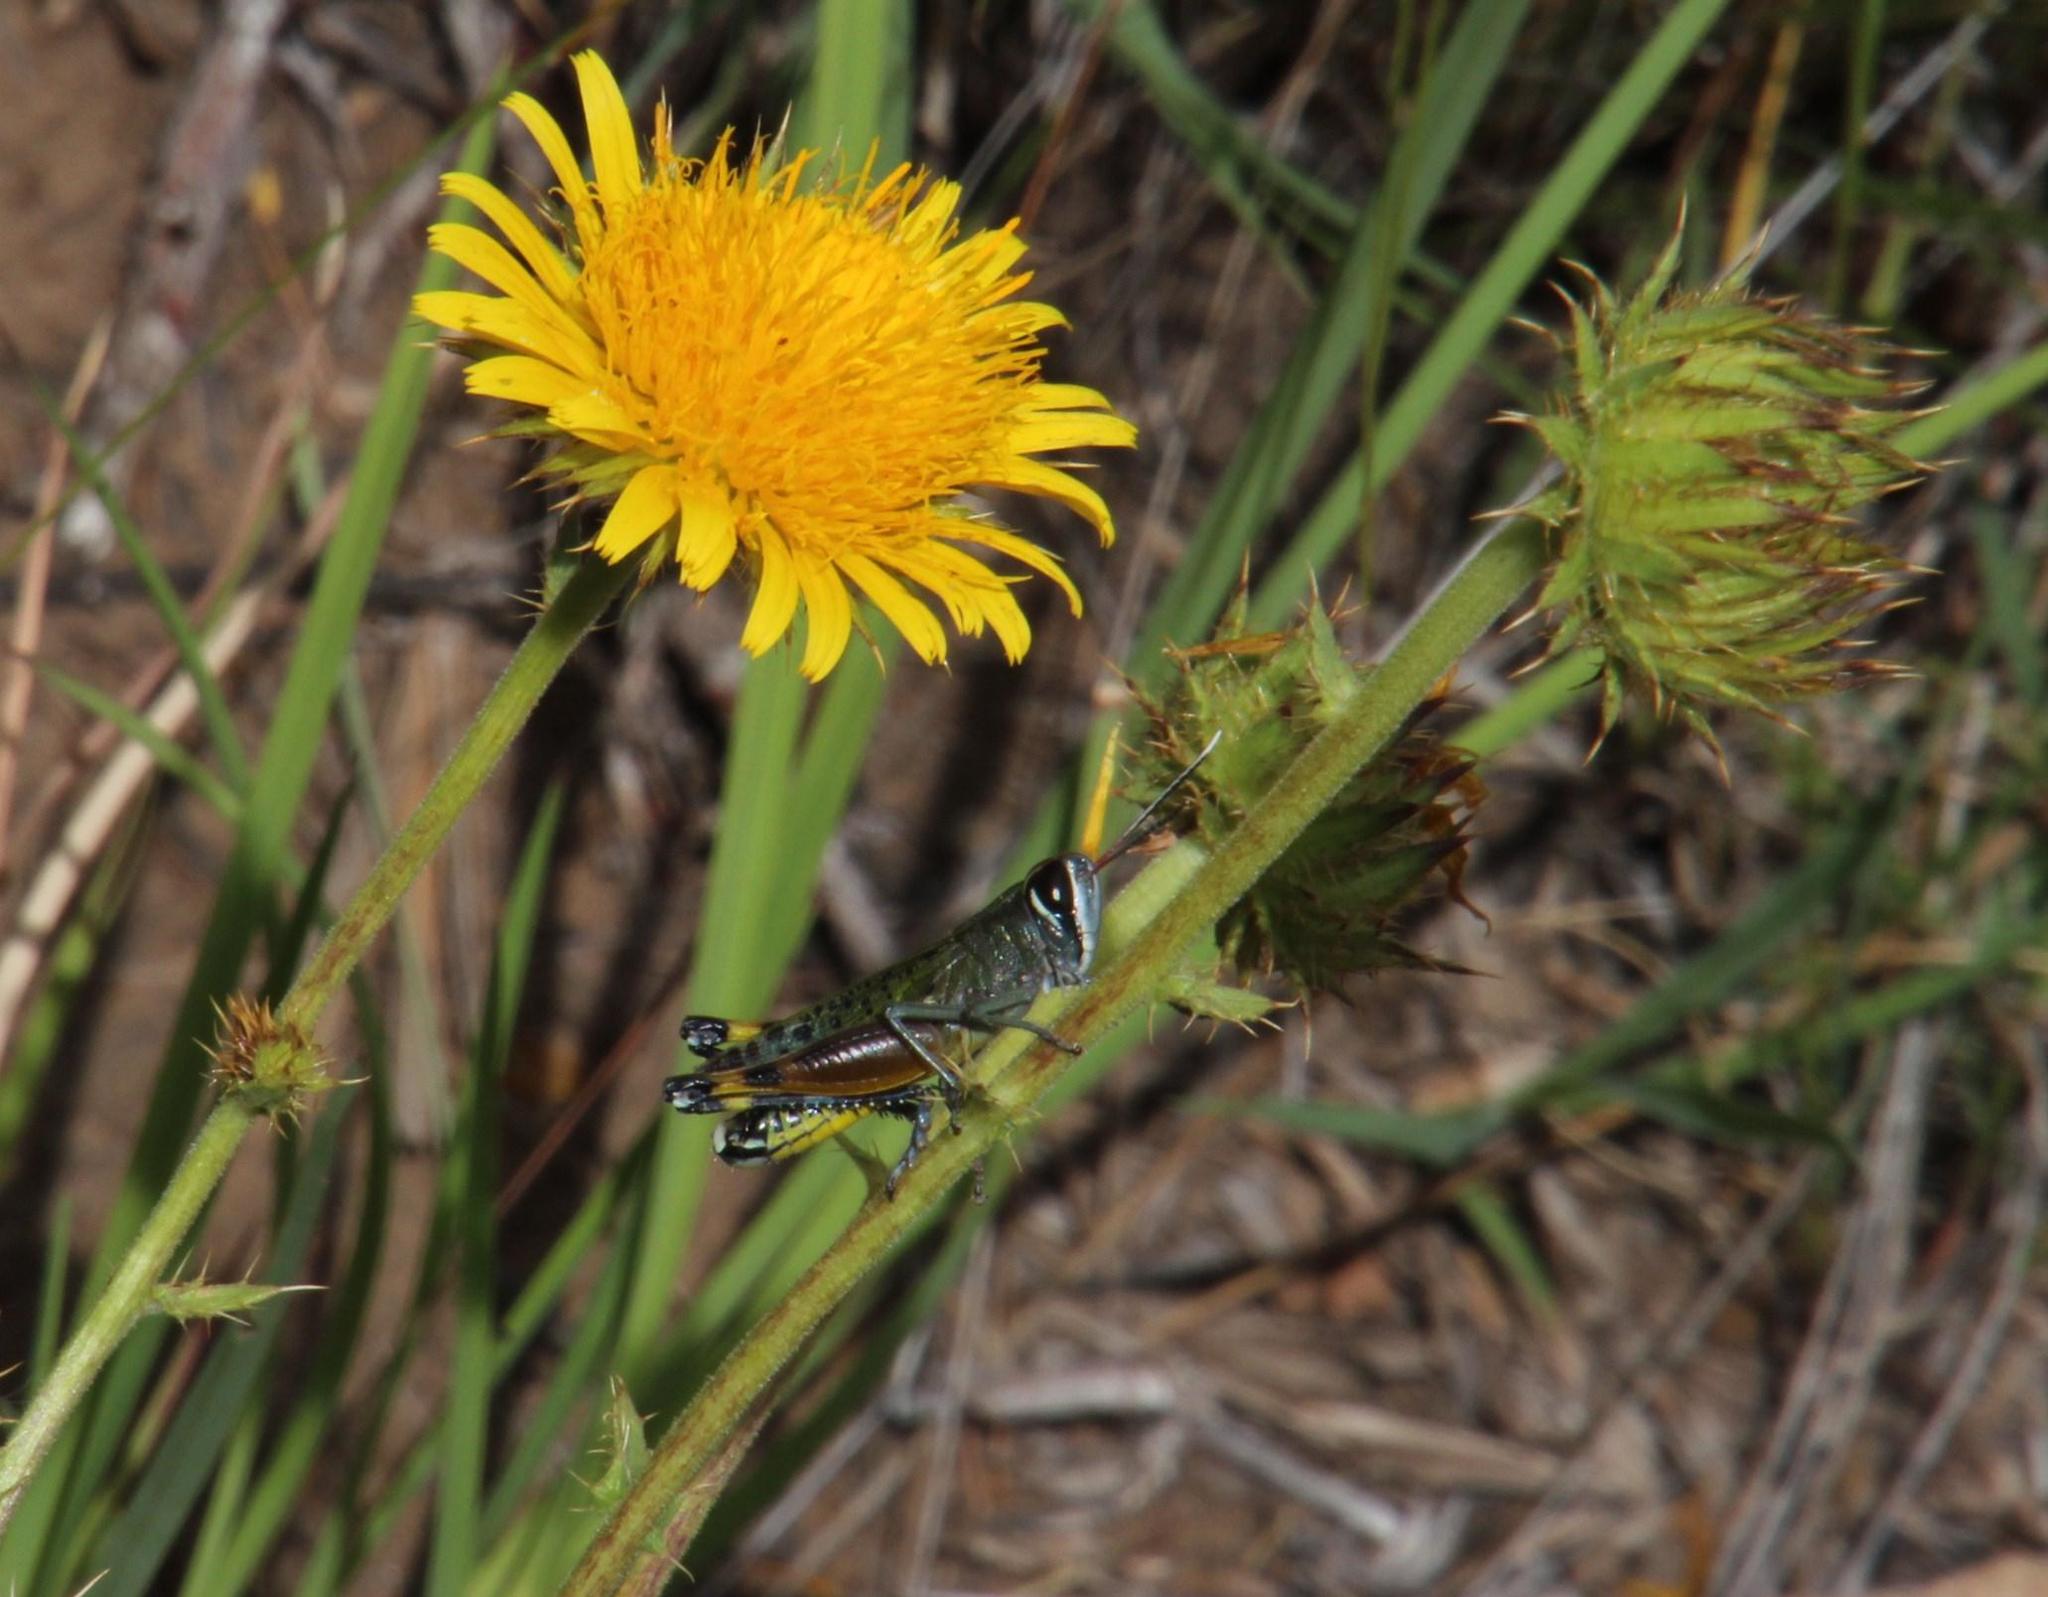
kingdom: Plantae
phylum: Tracheophyta
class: Magnoliopsida
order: Asterales
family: Asteraceae
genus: Berkheya
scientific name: Berkheya discolor
